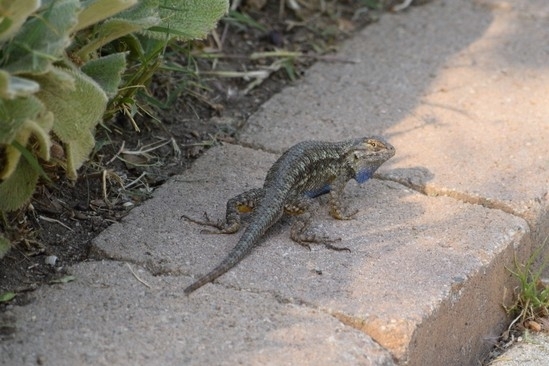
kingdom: Animalia
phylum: Chordata
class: Squamata
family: Phrynosomatidae
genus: Sceloporus
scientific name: Sceloporus occidentalis
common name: Western fence lizard
